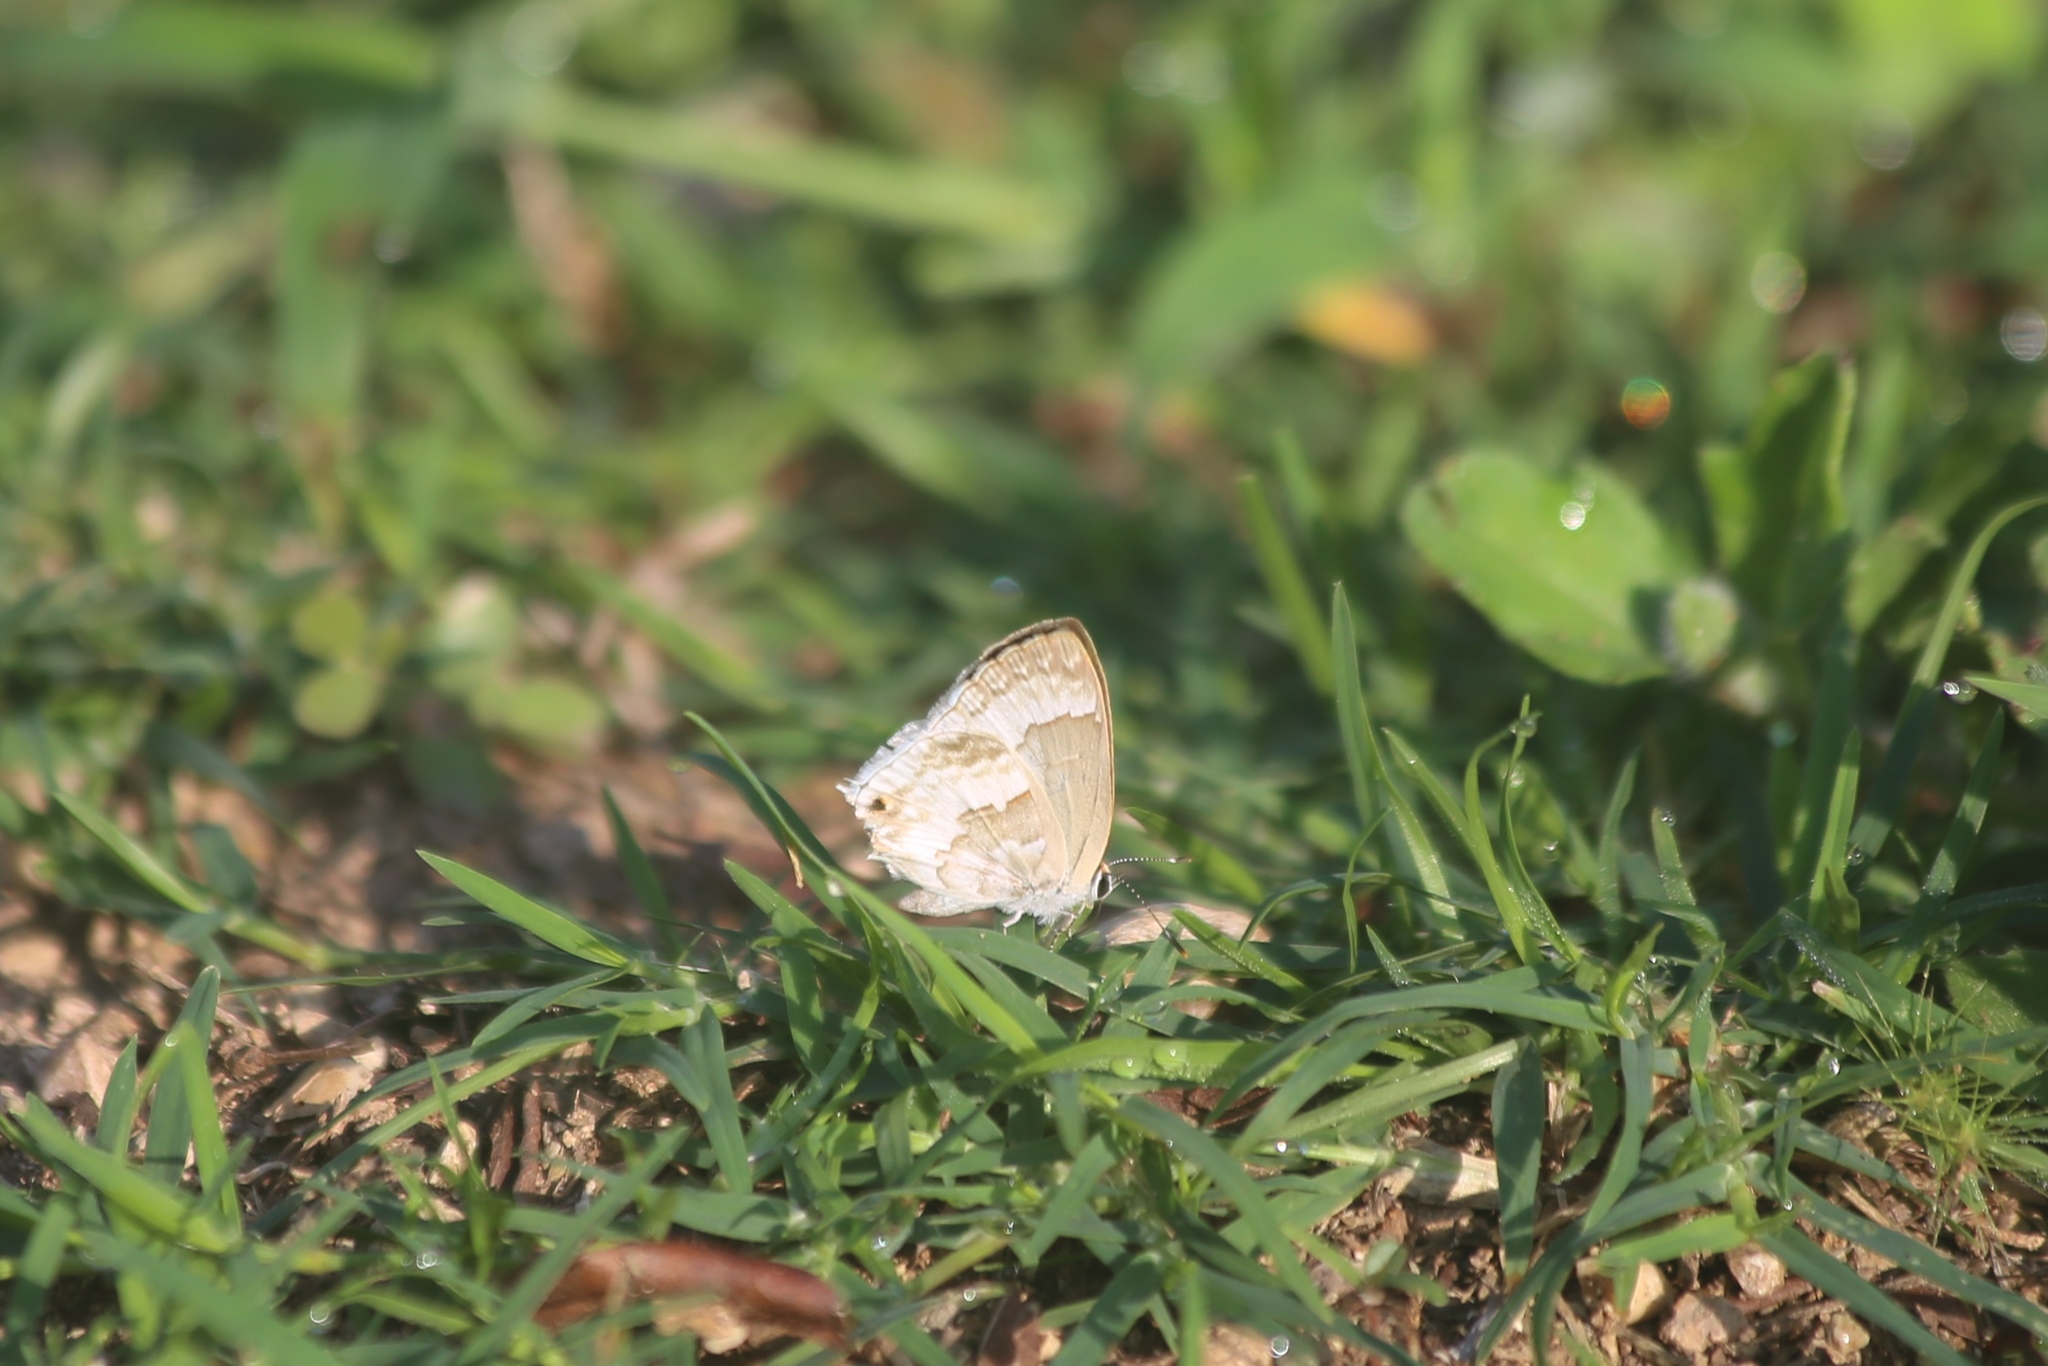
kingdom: Animalia
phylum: Arthropoda
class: Insecta
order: Lepidoptera
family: Lycaenidae
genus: Strymon
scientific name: Strymon albata
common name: White scrub-hairstreak
